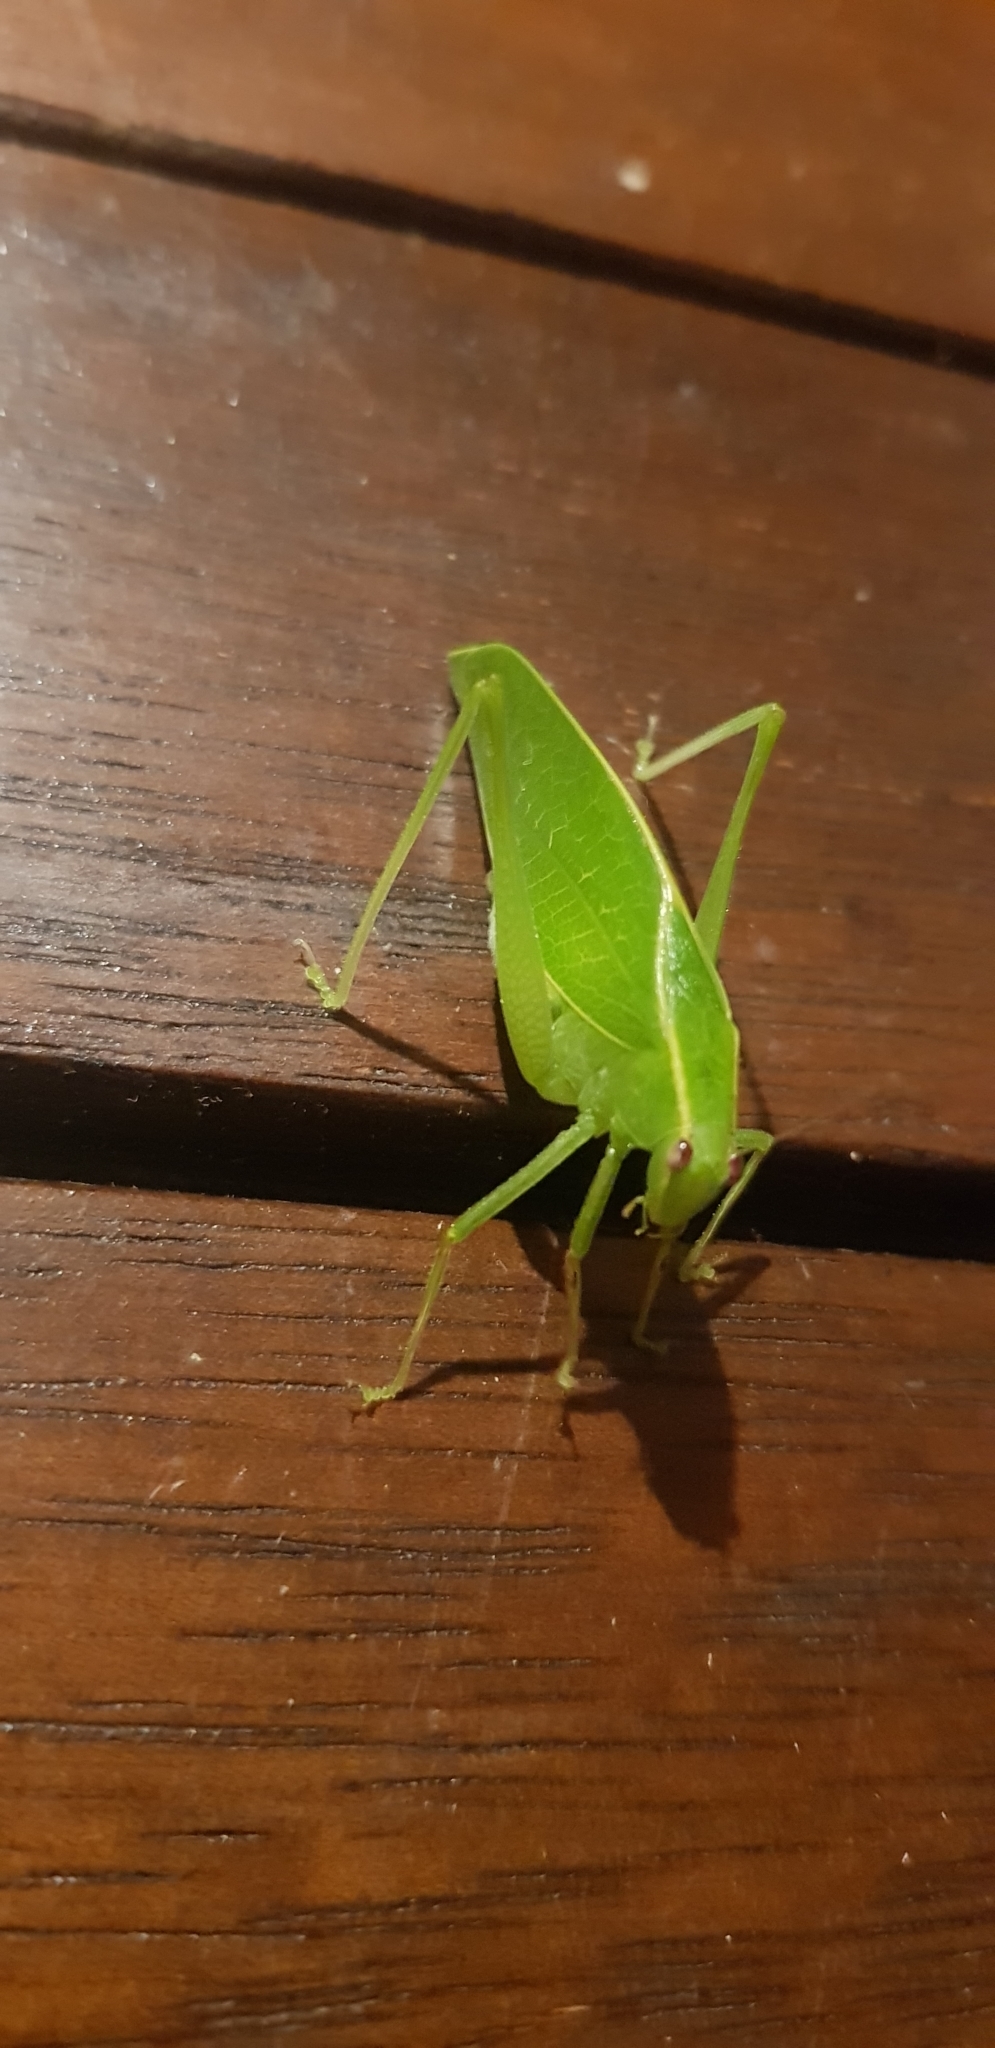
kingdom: Animalia
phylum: Arthropoda
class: Insecta
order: Orthoptera
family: Tettigoniidae
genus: Diastella
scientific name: Diastella kuranda
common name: Kuranda speckled katydid
